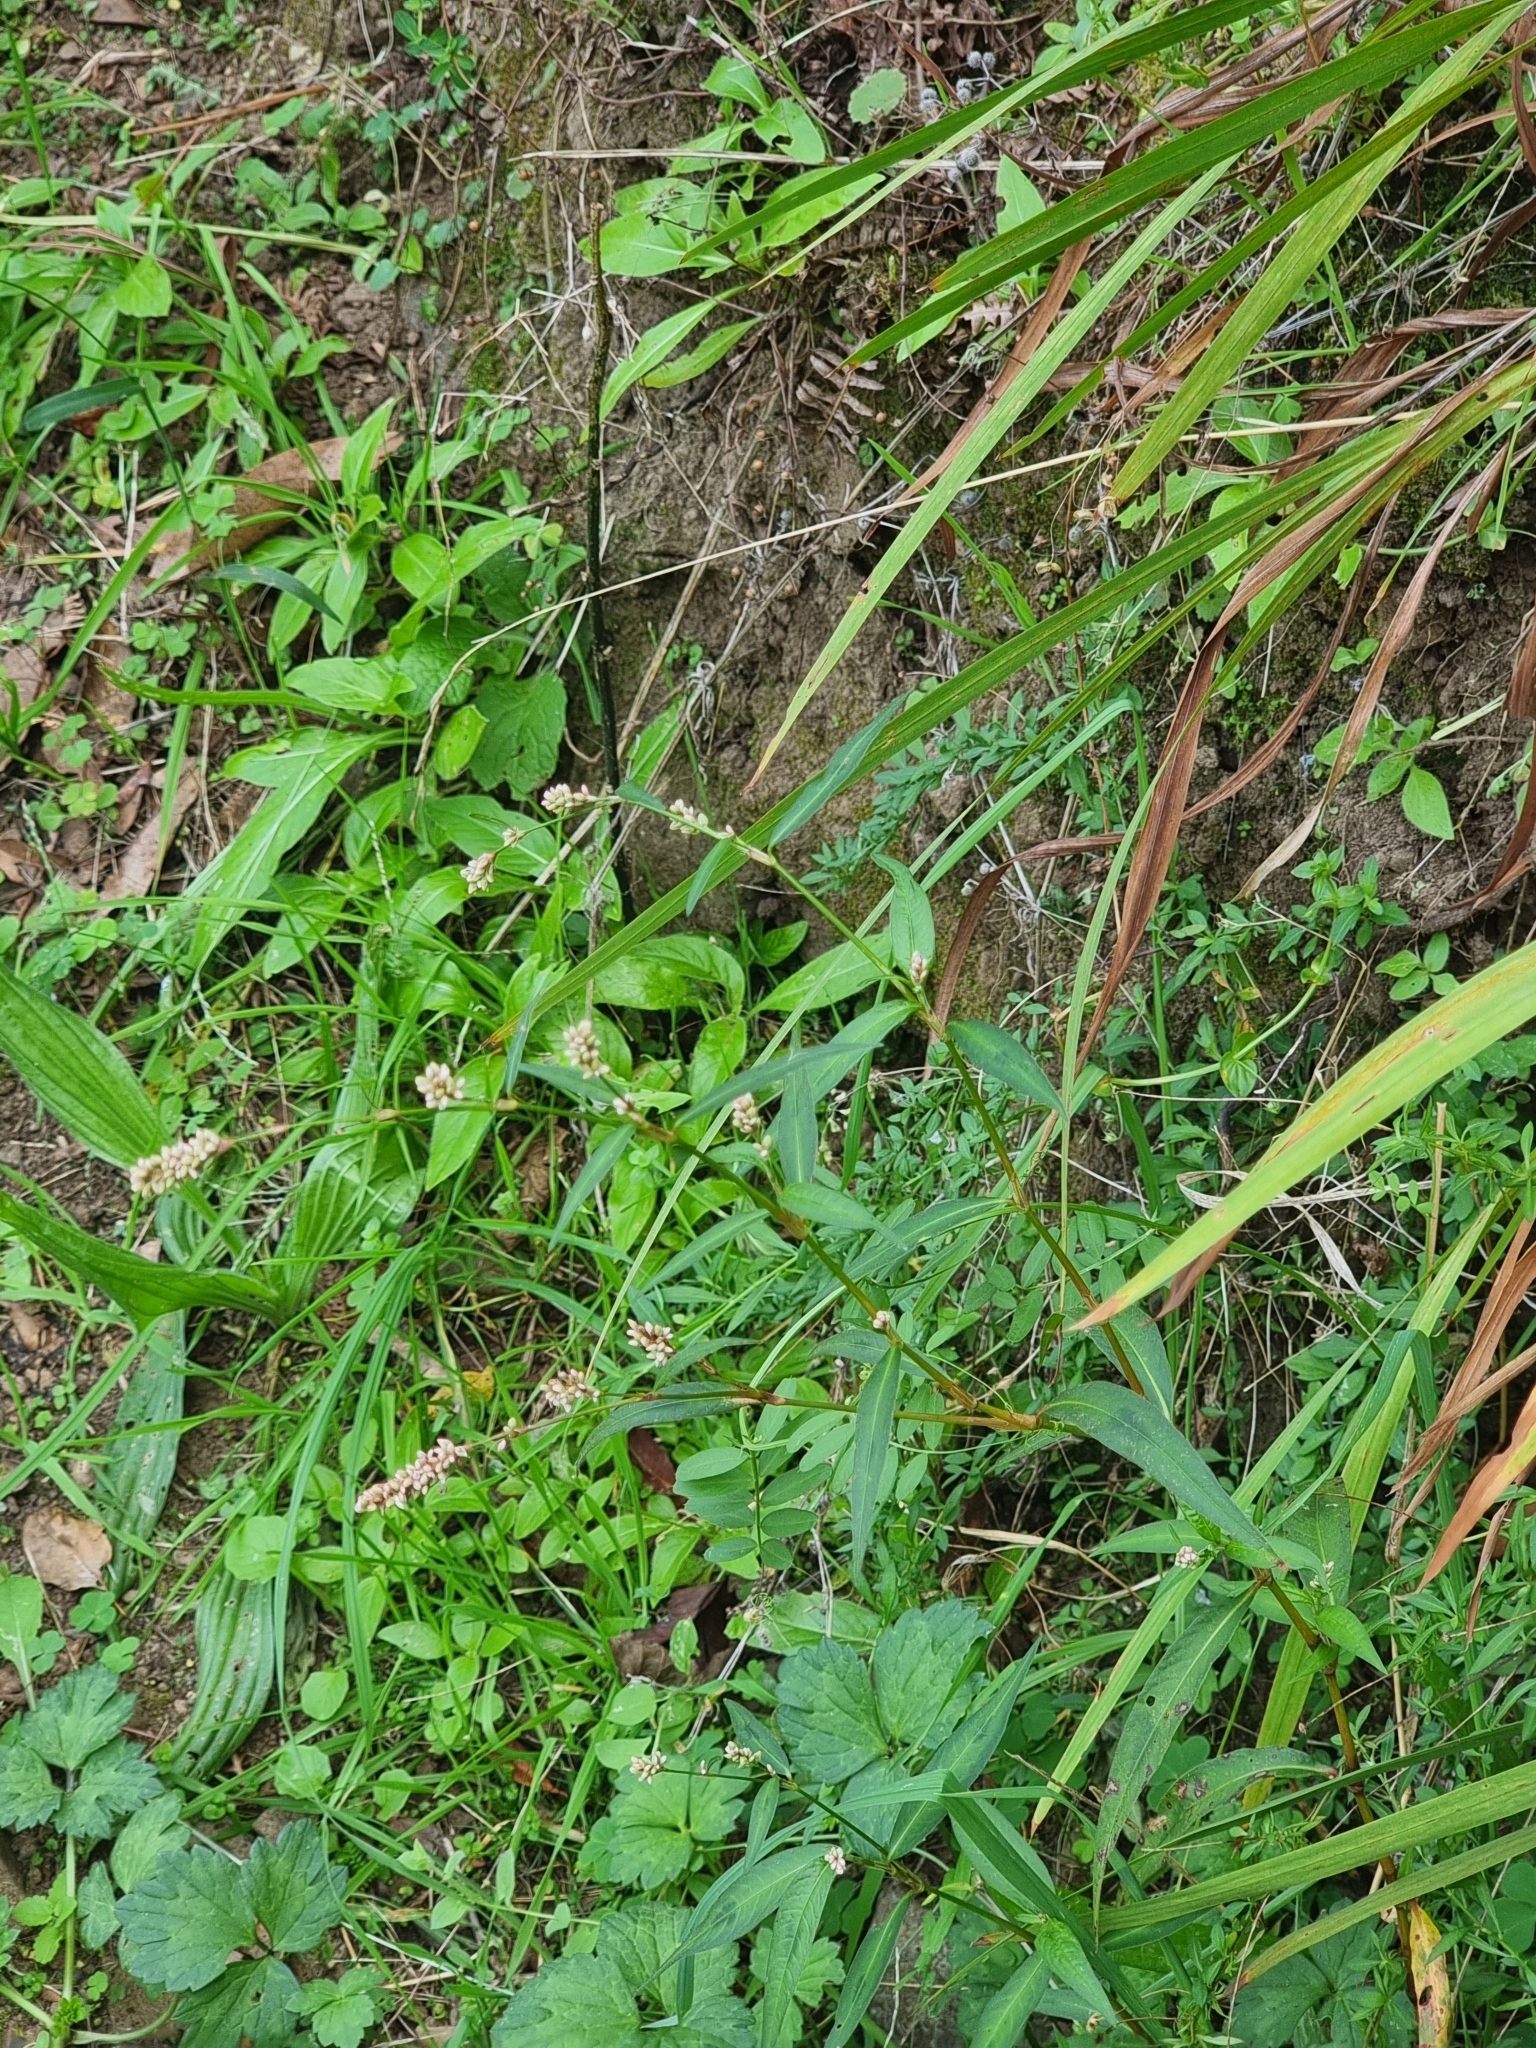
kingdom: Plantae
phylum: Tracheophyta
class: Magnoliopsida
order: Caryophyllales
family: Polygonaceae
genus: Persicaria
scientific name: Persicaria maculosa
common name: Redshank
